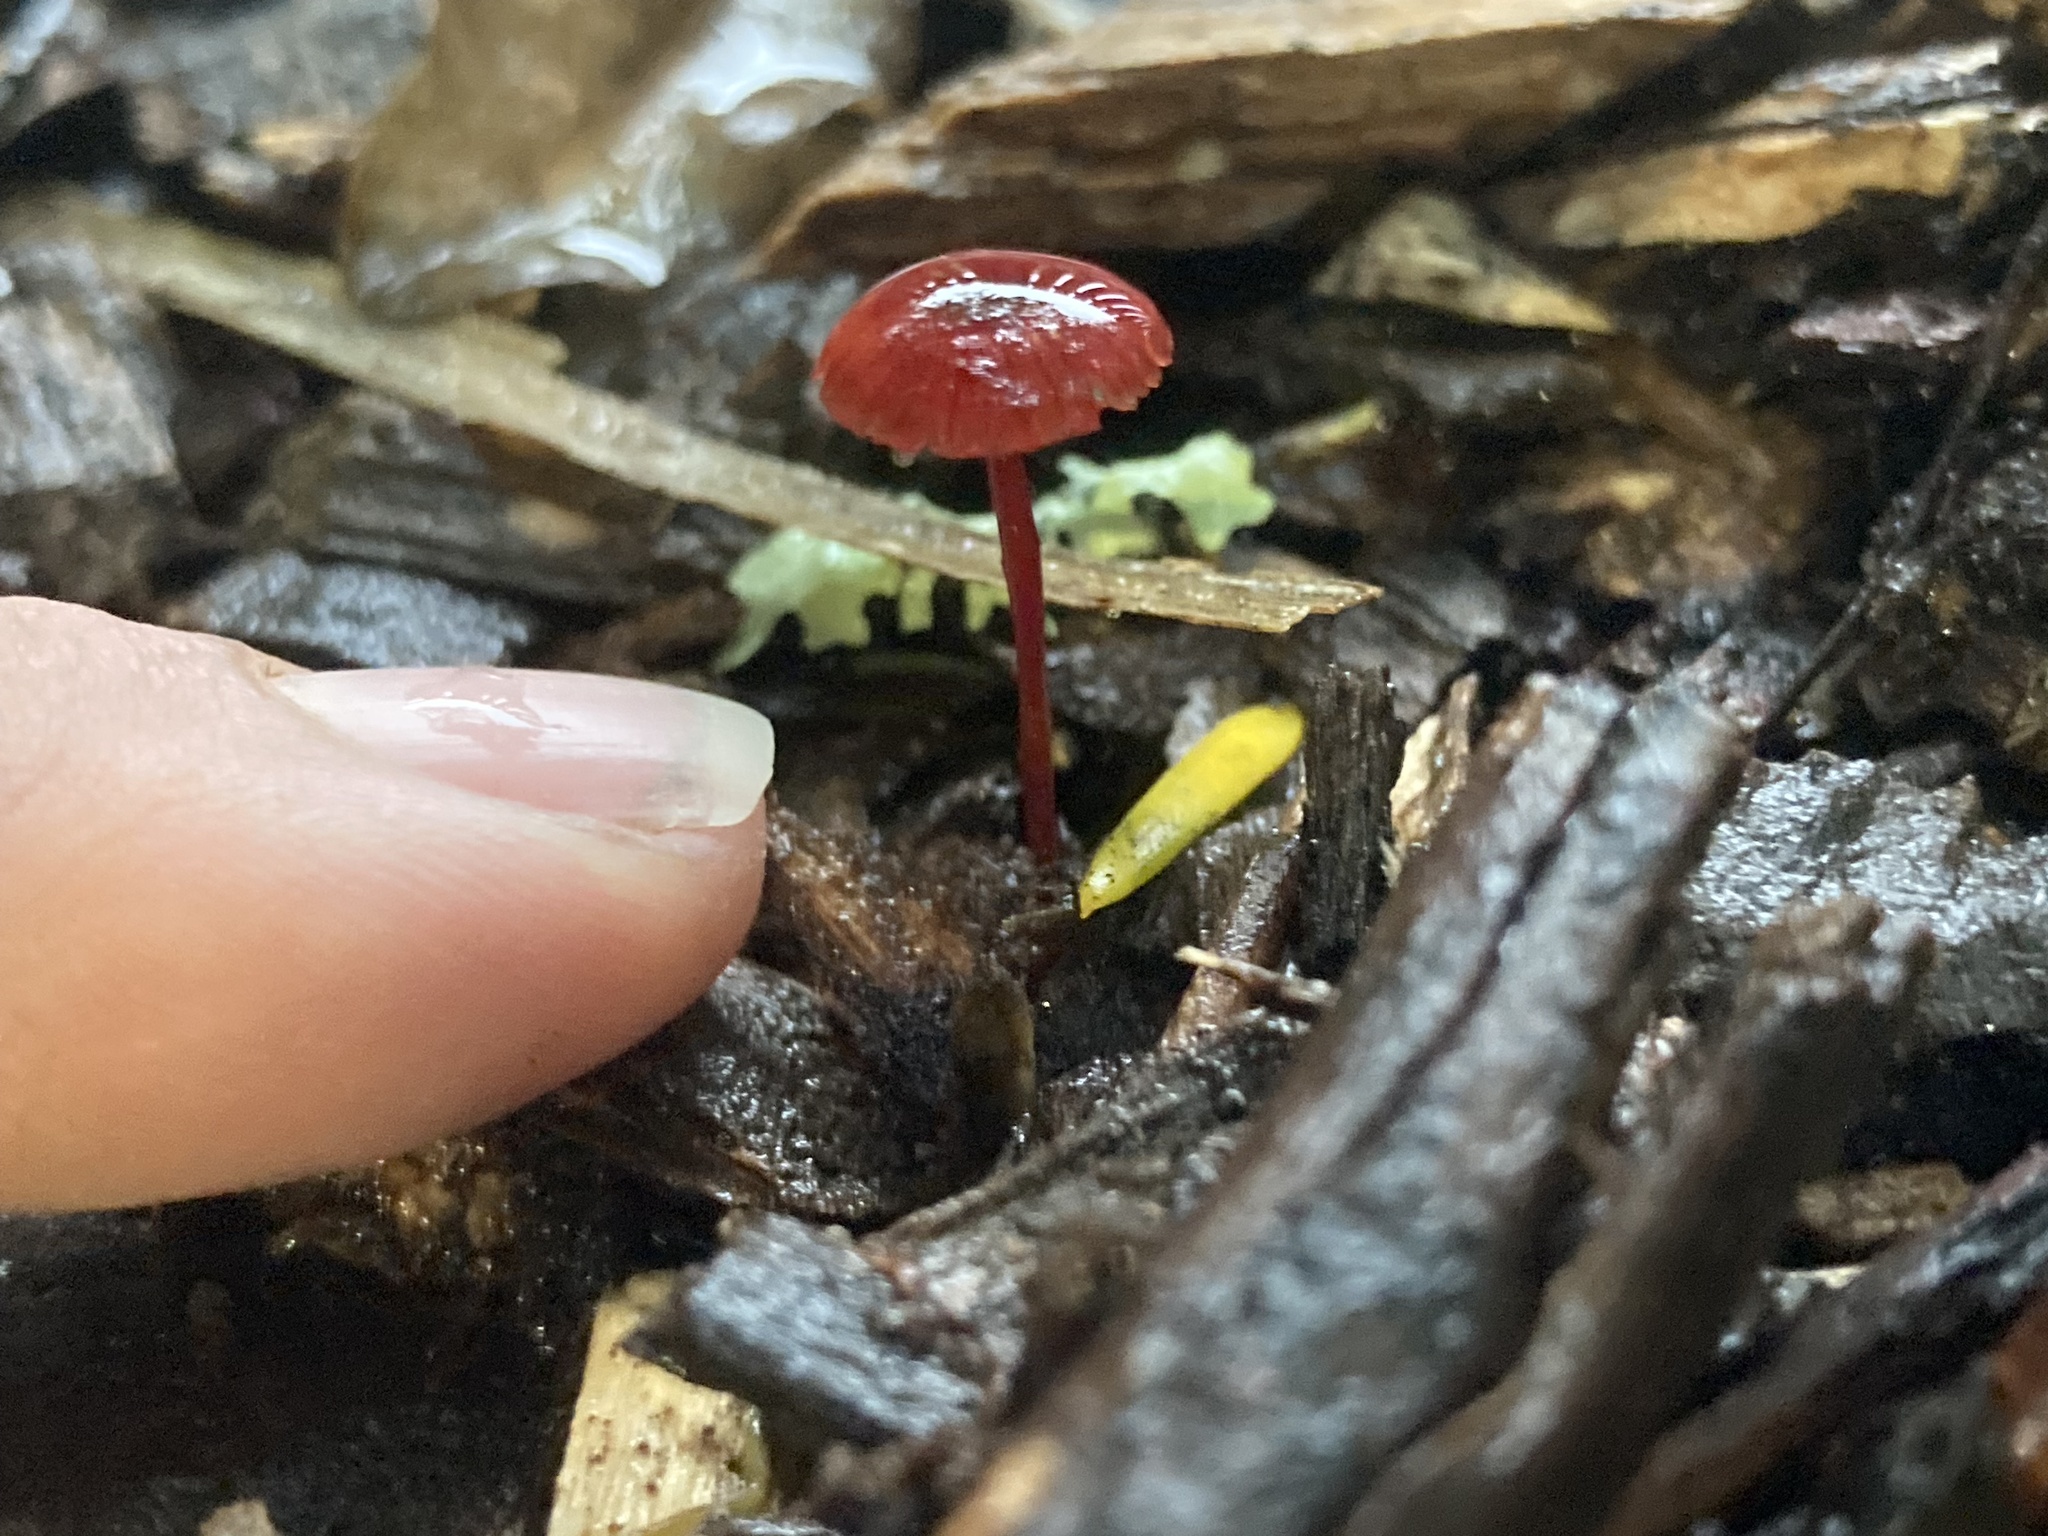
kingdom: Fungi
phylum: Basidiomycota
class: Agaricomycetes
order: Agaricales
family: Mycenaceae
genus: Cruentomycena
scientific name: Cruentomycena viscidocruenta
